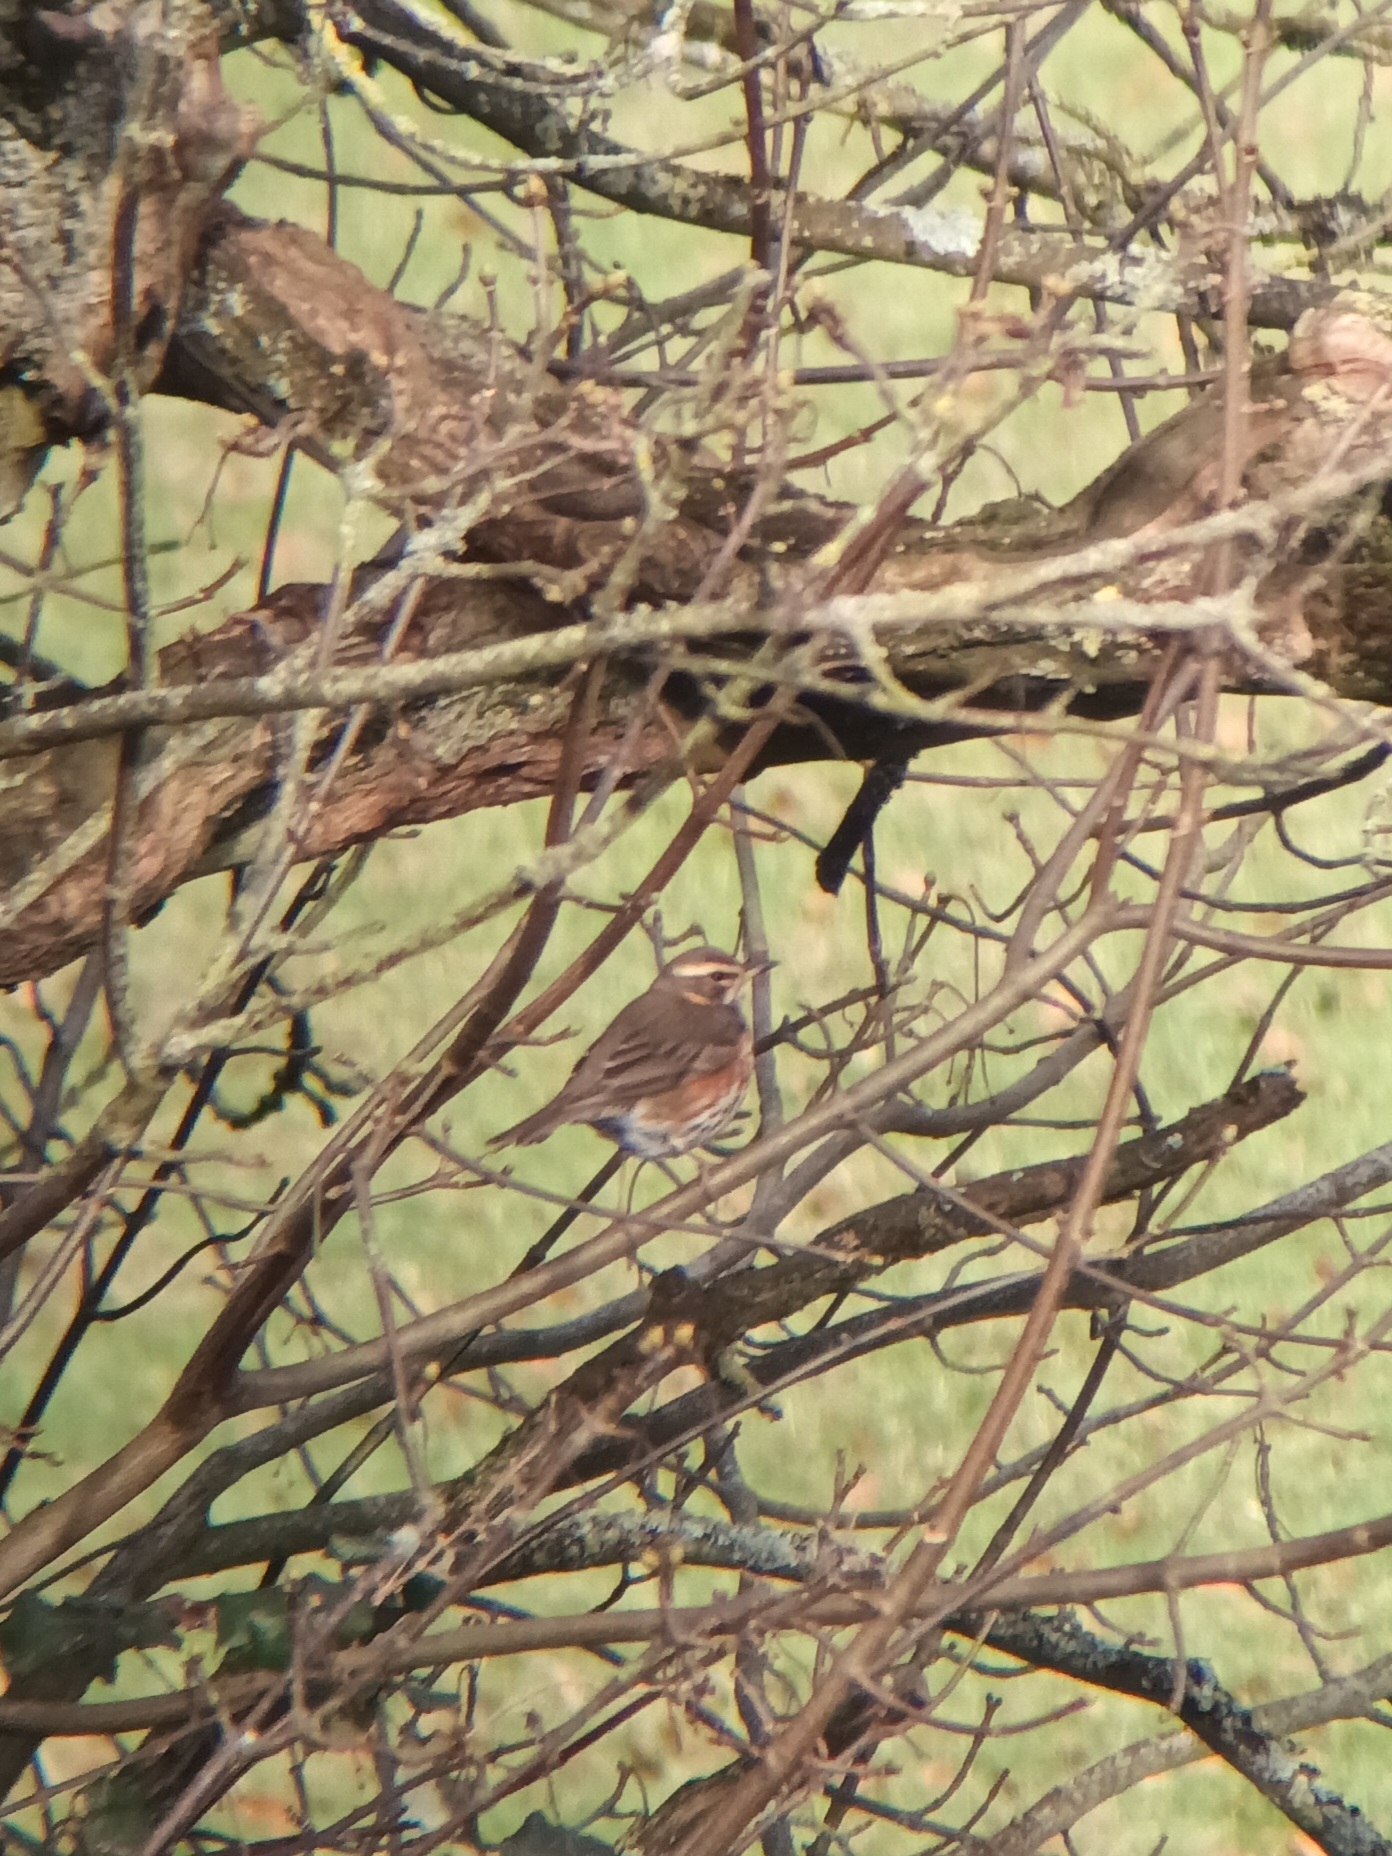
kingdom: Animalia
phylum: Chordata
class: Aves
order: Passeriformes
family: Turdidae
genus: Turdus
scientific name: Turdus iliacus
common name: Redwing
